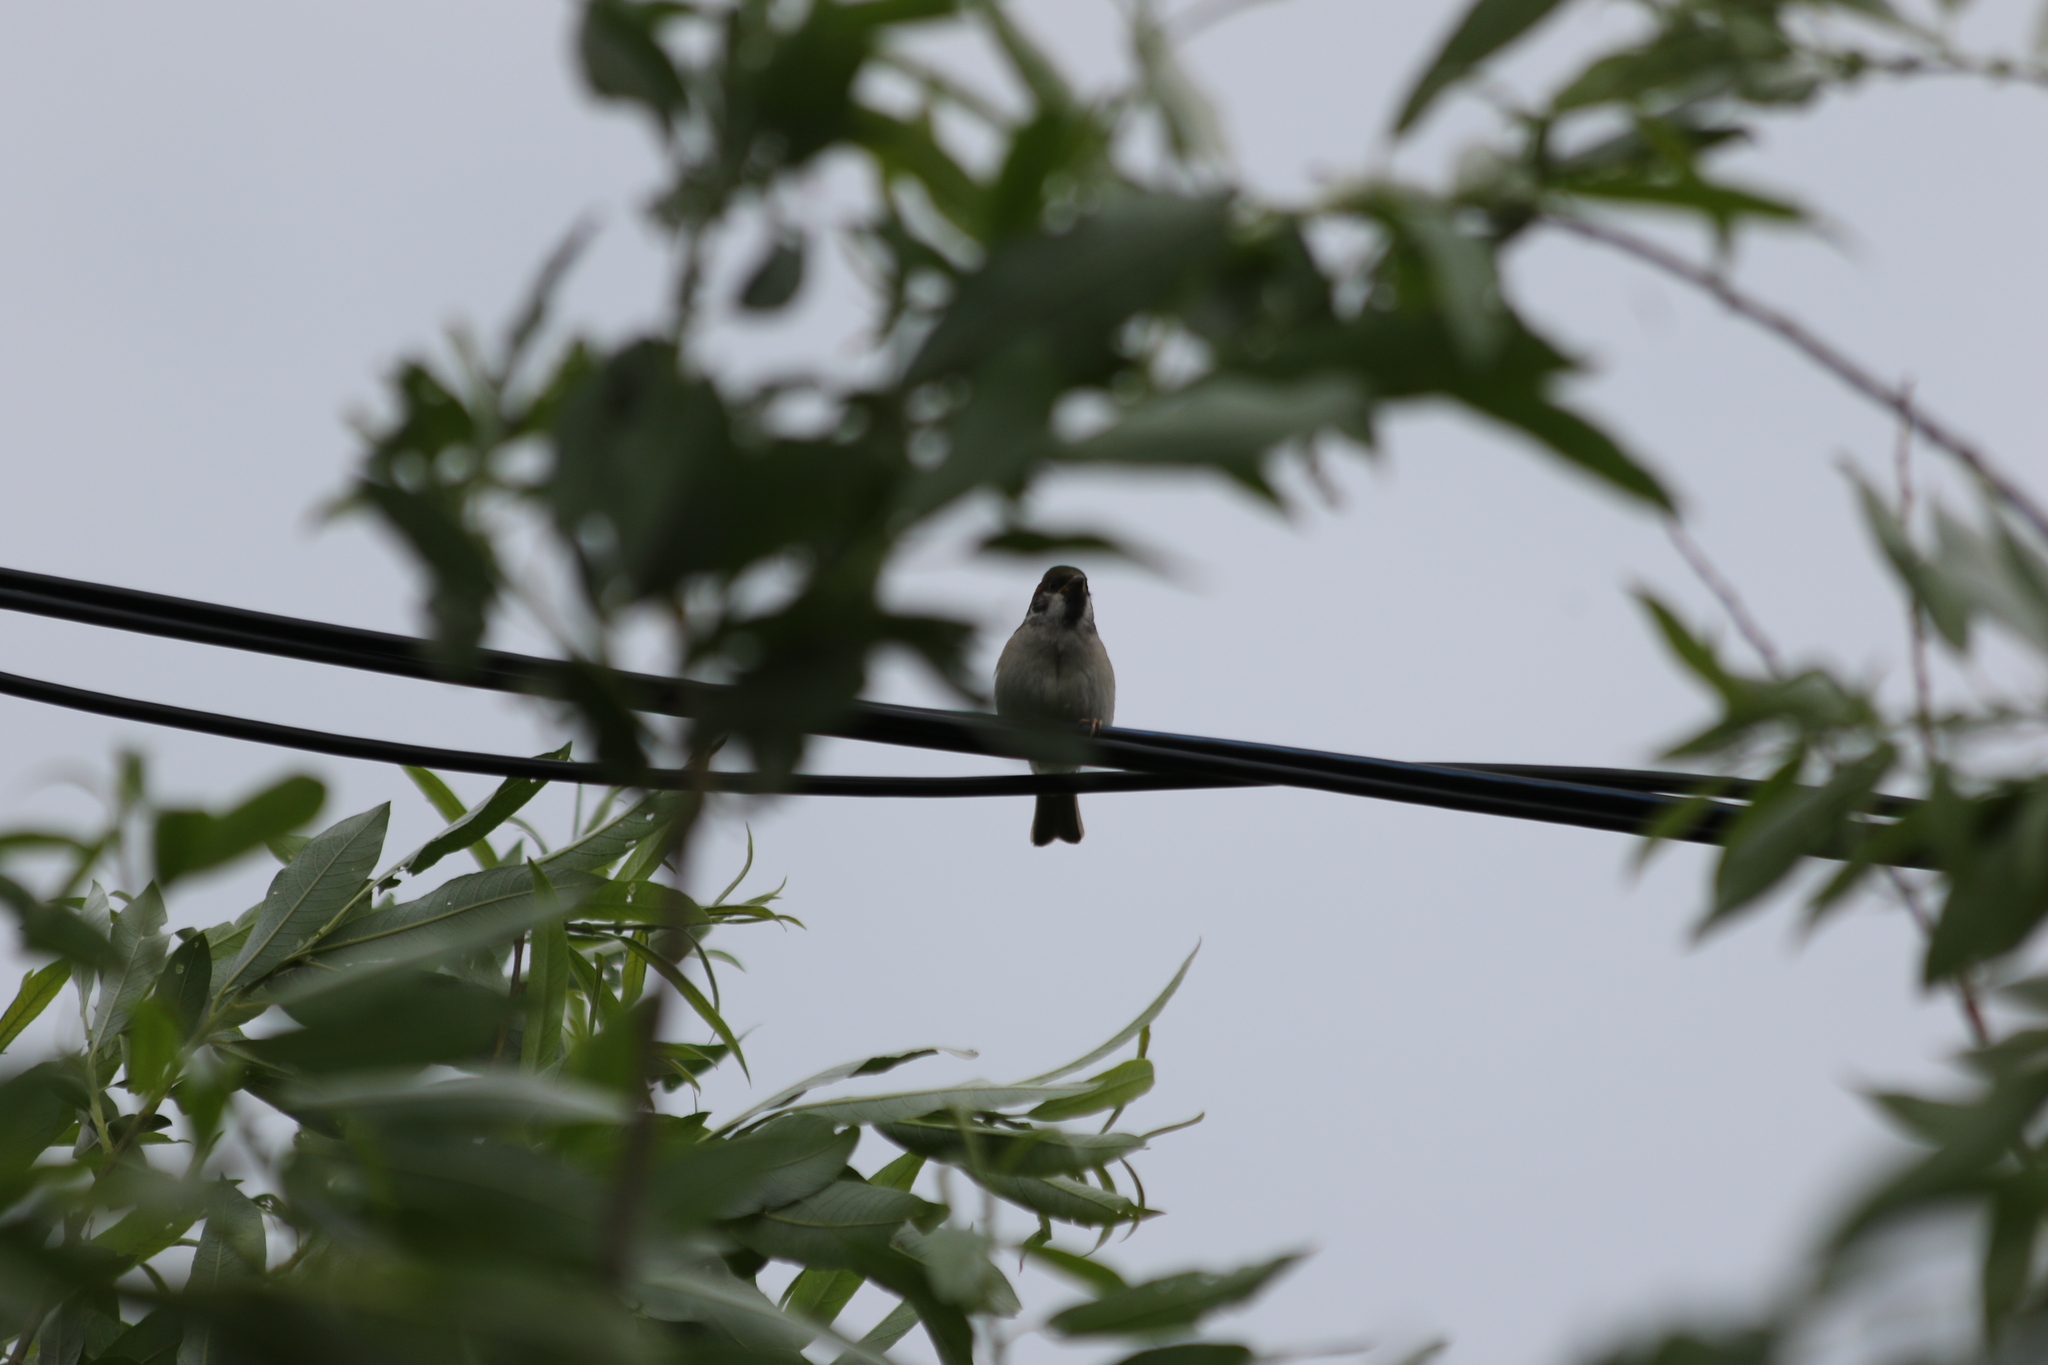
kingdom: Animalia
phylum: Chordata
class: Aves
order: Passeriformes
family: Passeridae
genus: Passer
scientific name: Passer montanus
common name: Eurasian tree sparrow
